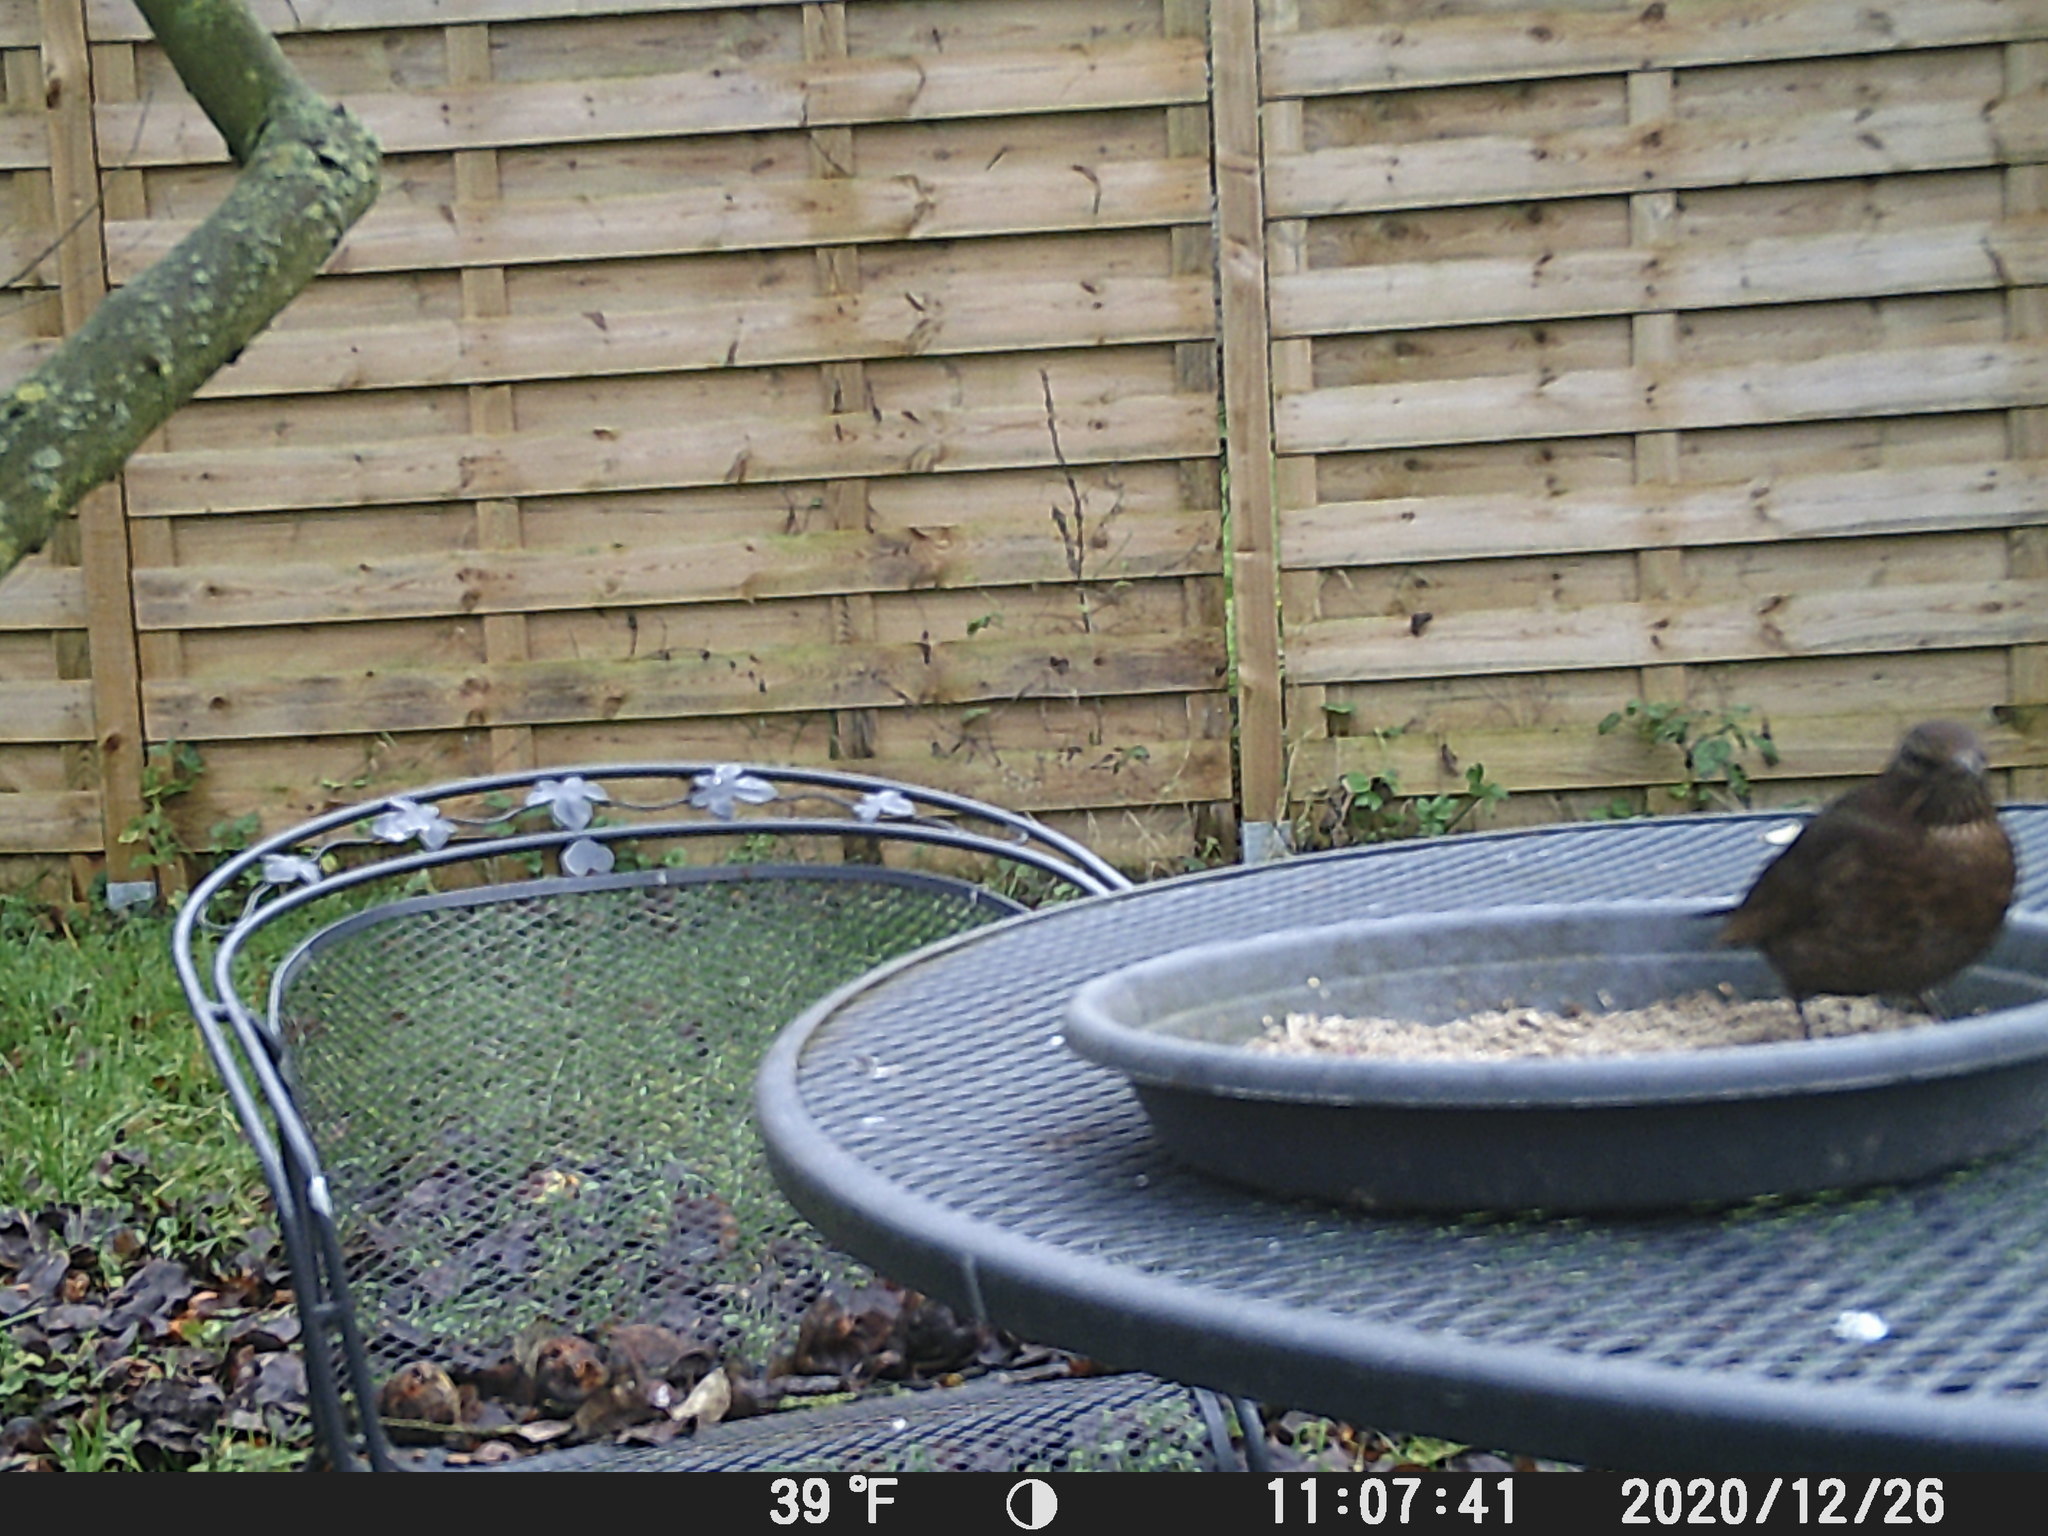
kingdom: Animalia
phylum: Chordata
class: Aves
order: Passeriformes
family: Turdidae
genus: Turdus
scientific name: Turdus merula
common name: Common blackbird
